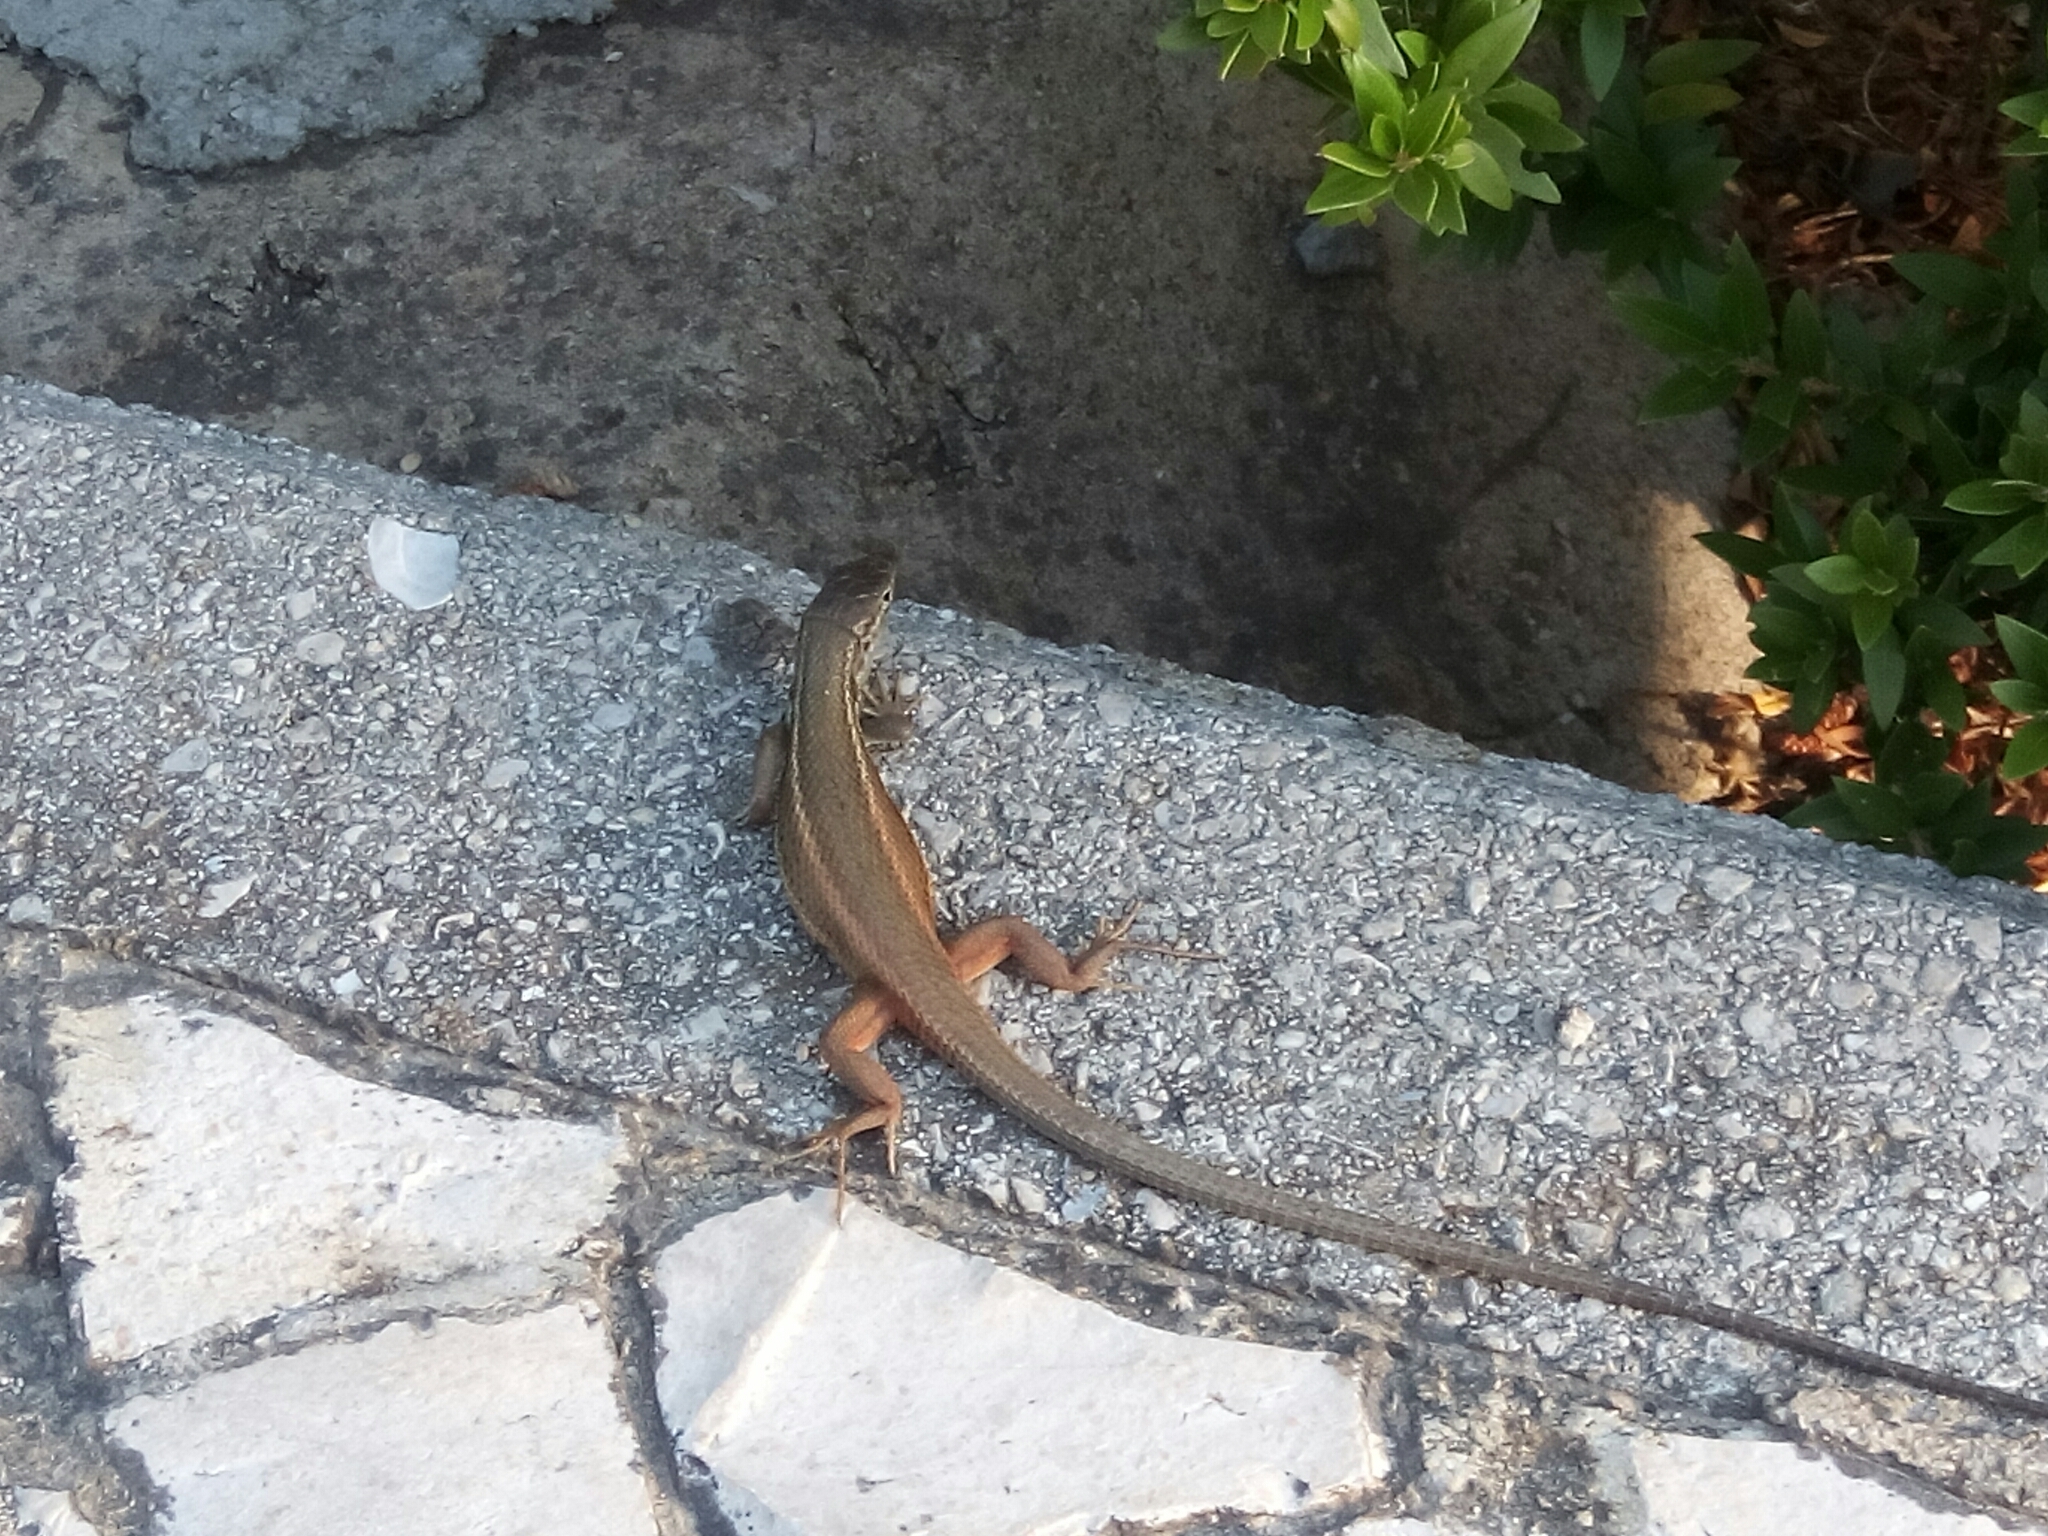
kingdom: Animalia
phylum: Chordata
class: Squamata
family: Lacertidae
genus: Psammodromus
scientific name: Psammodromus algirus
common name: Algerian psammodromus
